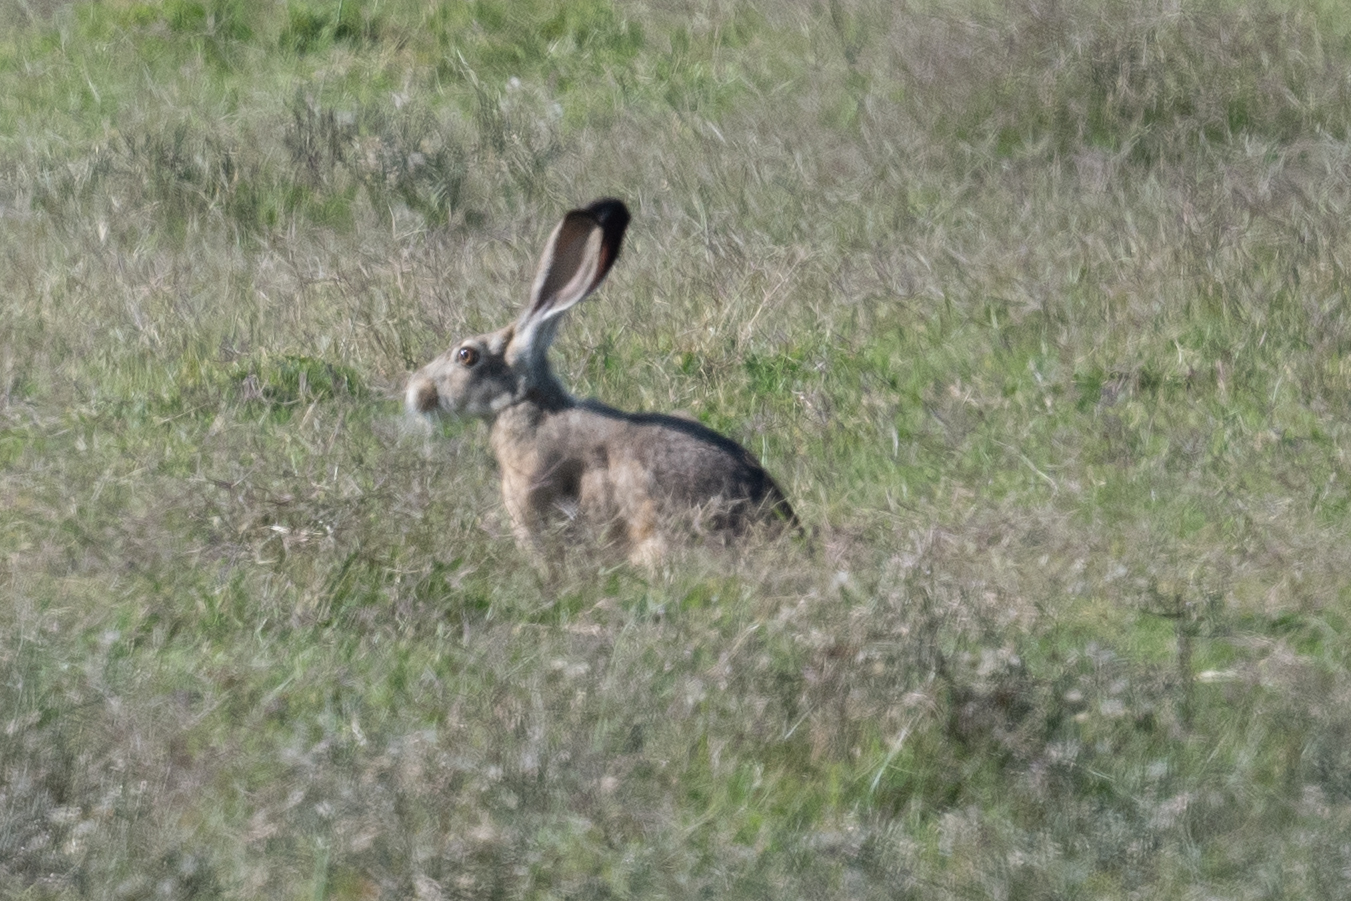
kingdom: Animalia
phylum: Chordata
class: Mammalia
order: Lagomorpha
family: Leporidae
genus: Lepus
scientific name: Lepus californicus
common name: Black-tailed jackrabbit
